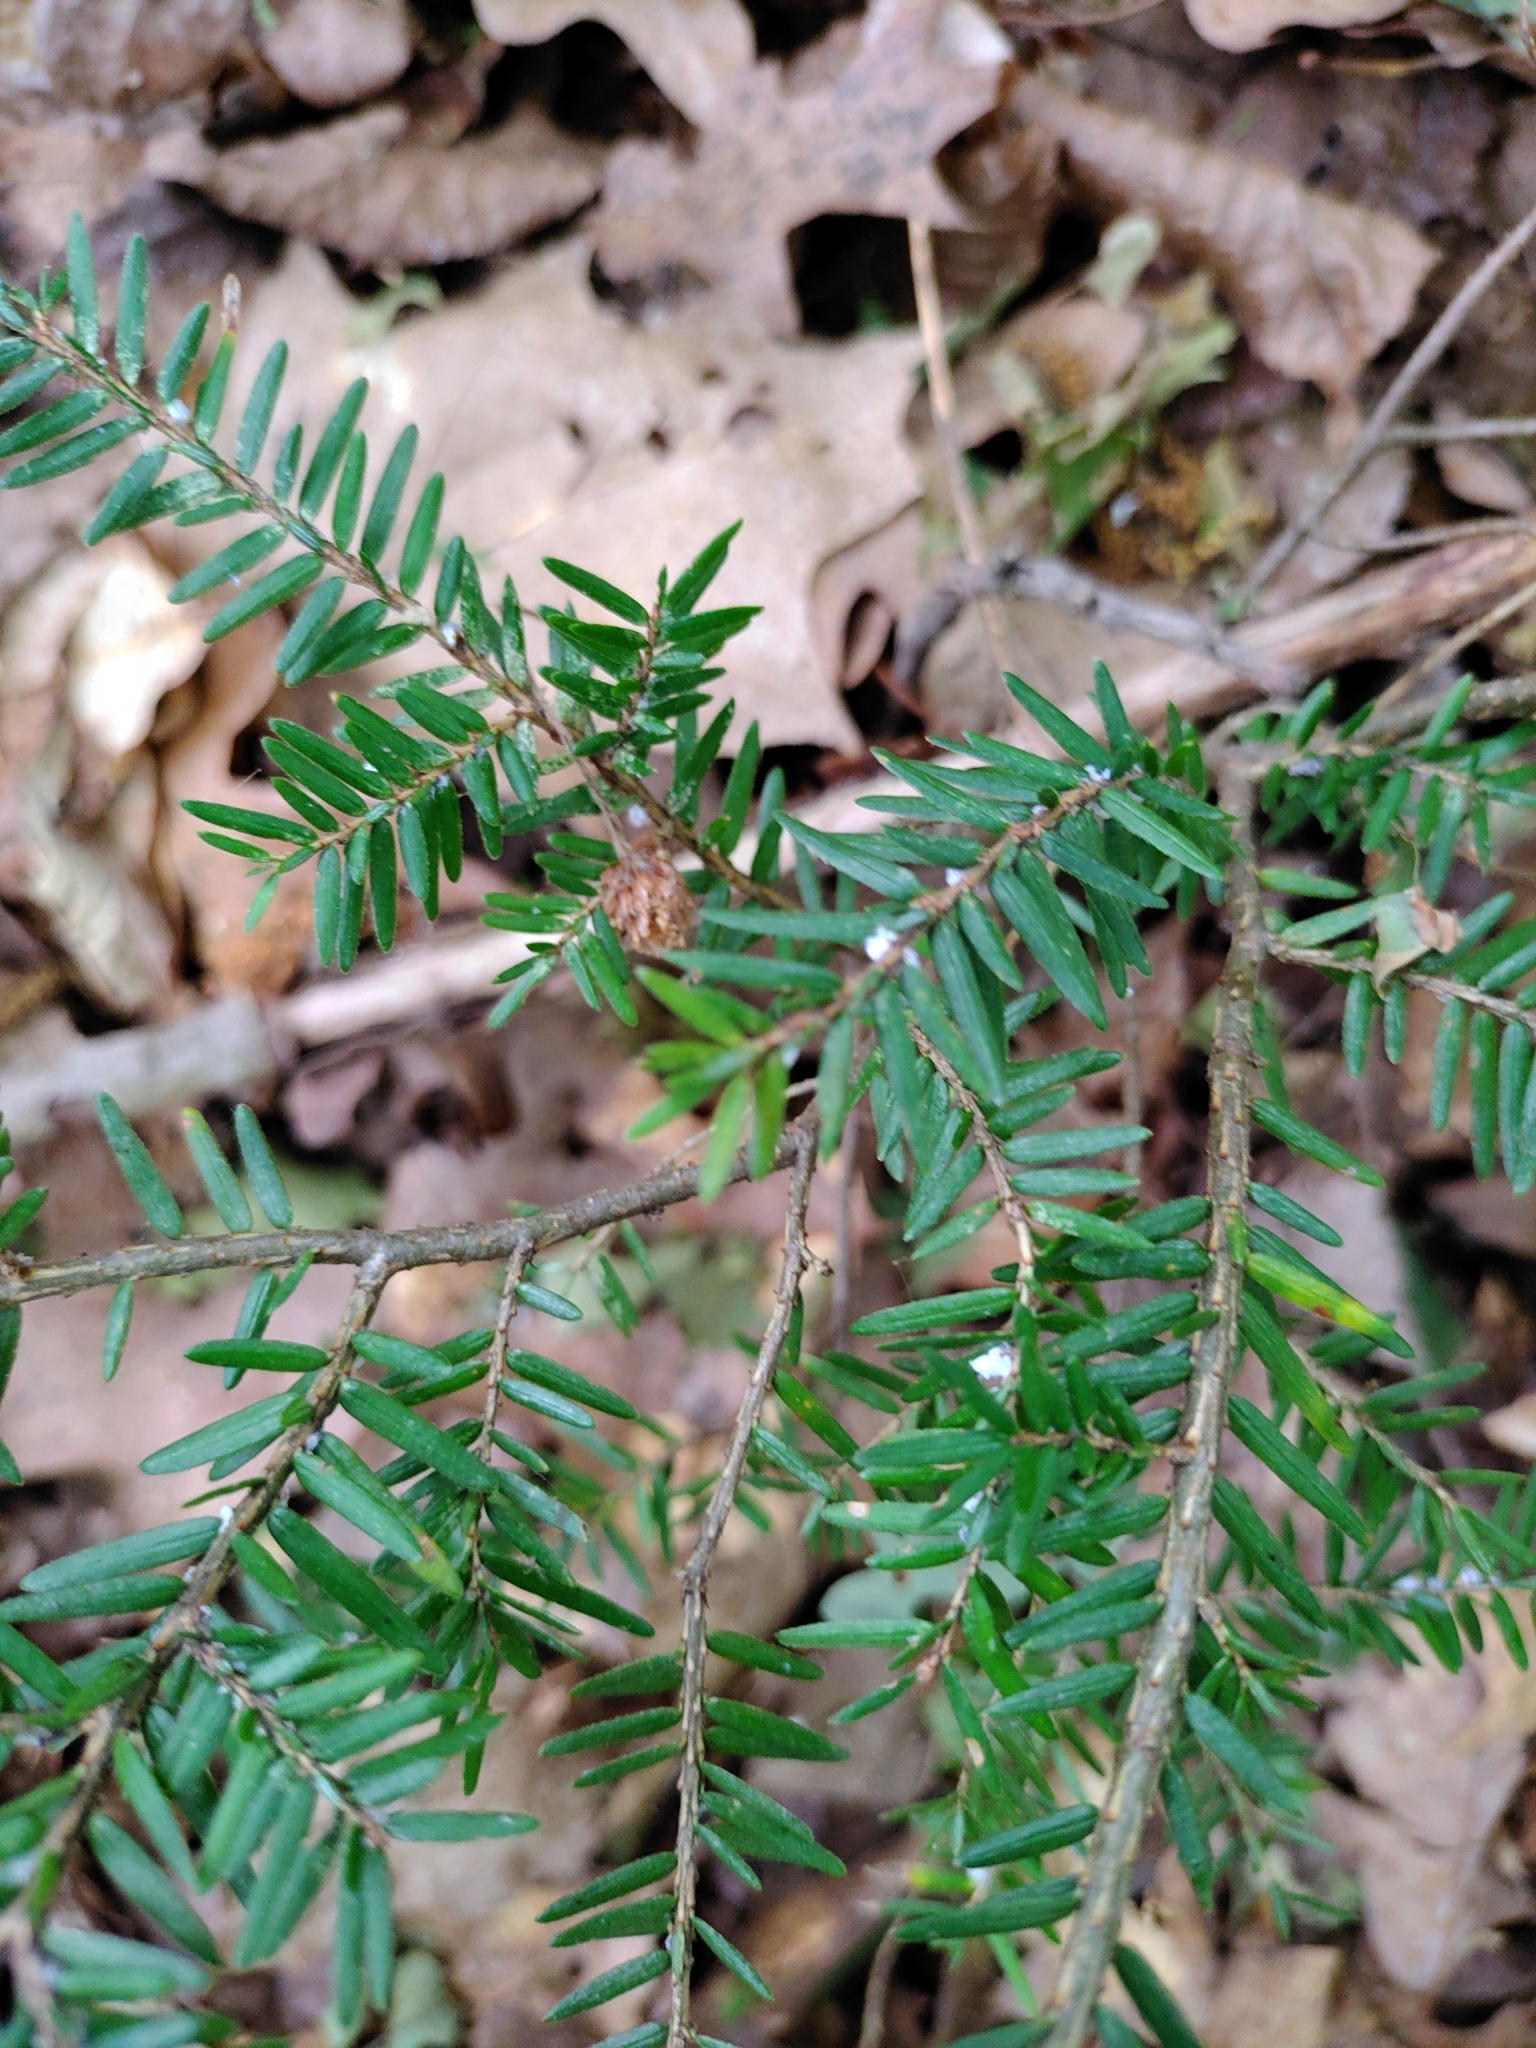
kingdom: Animalia
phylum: Arthropoda
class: Insecta
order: Hemiptera
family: Adelgidae
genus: Adelges
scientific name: Adelges tsugae
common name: Hemlock woolly adelgid
